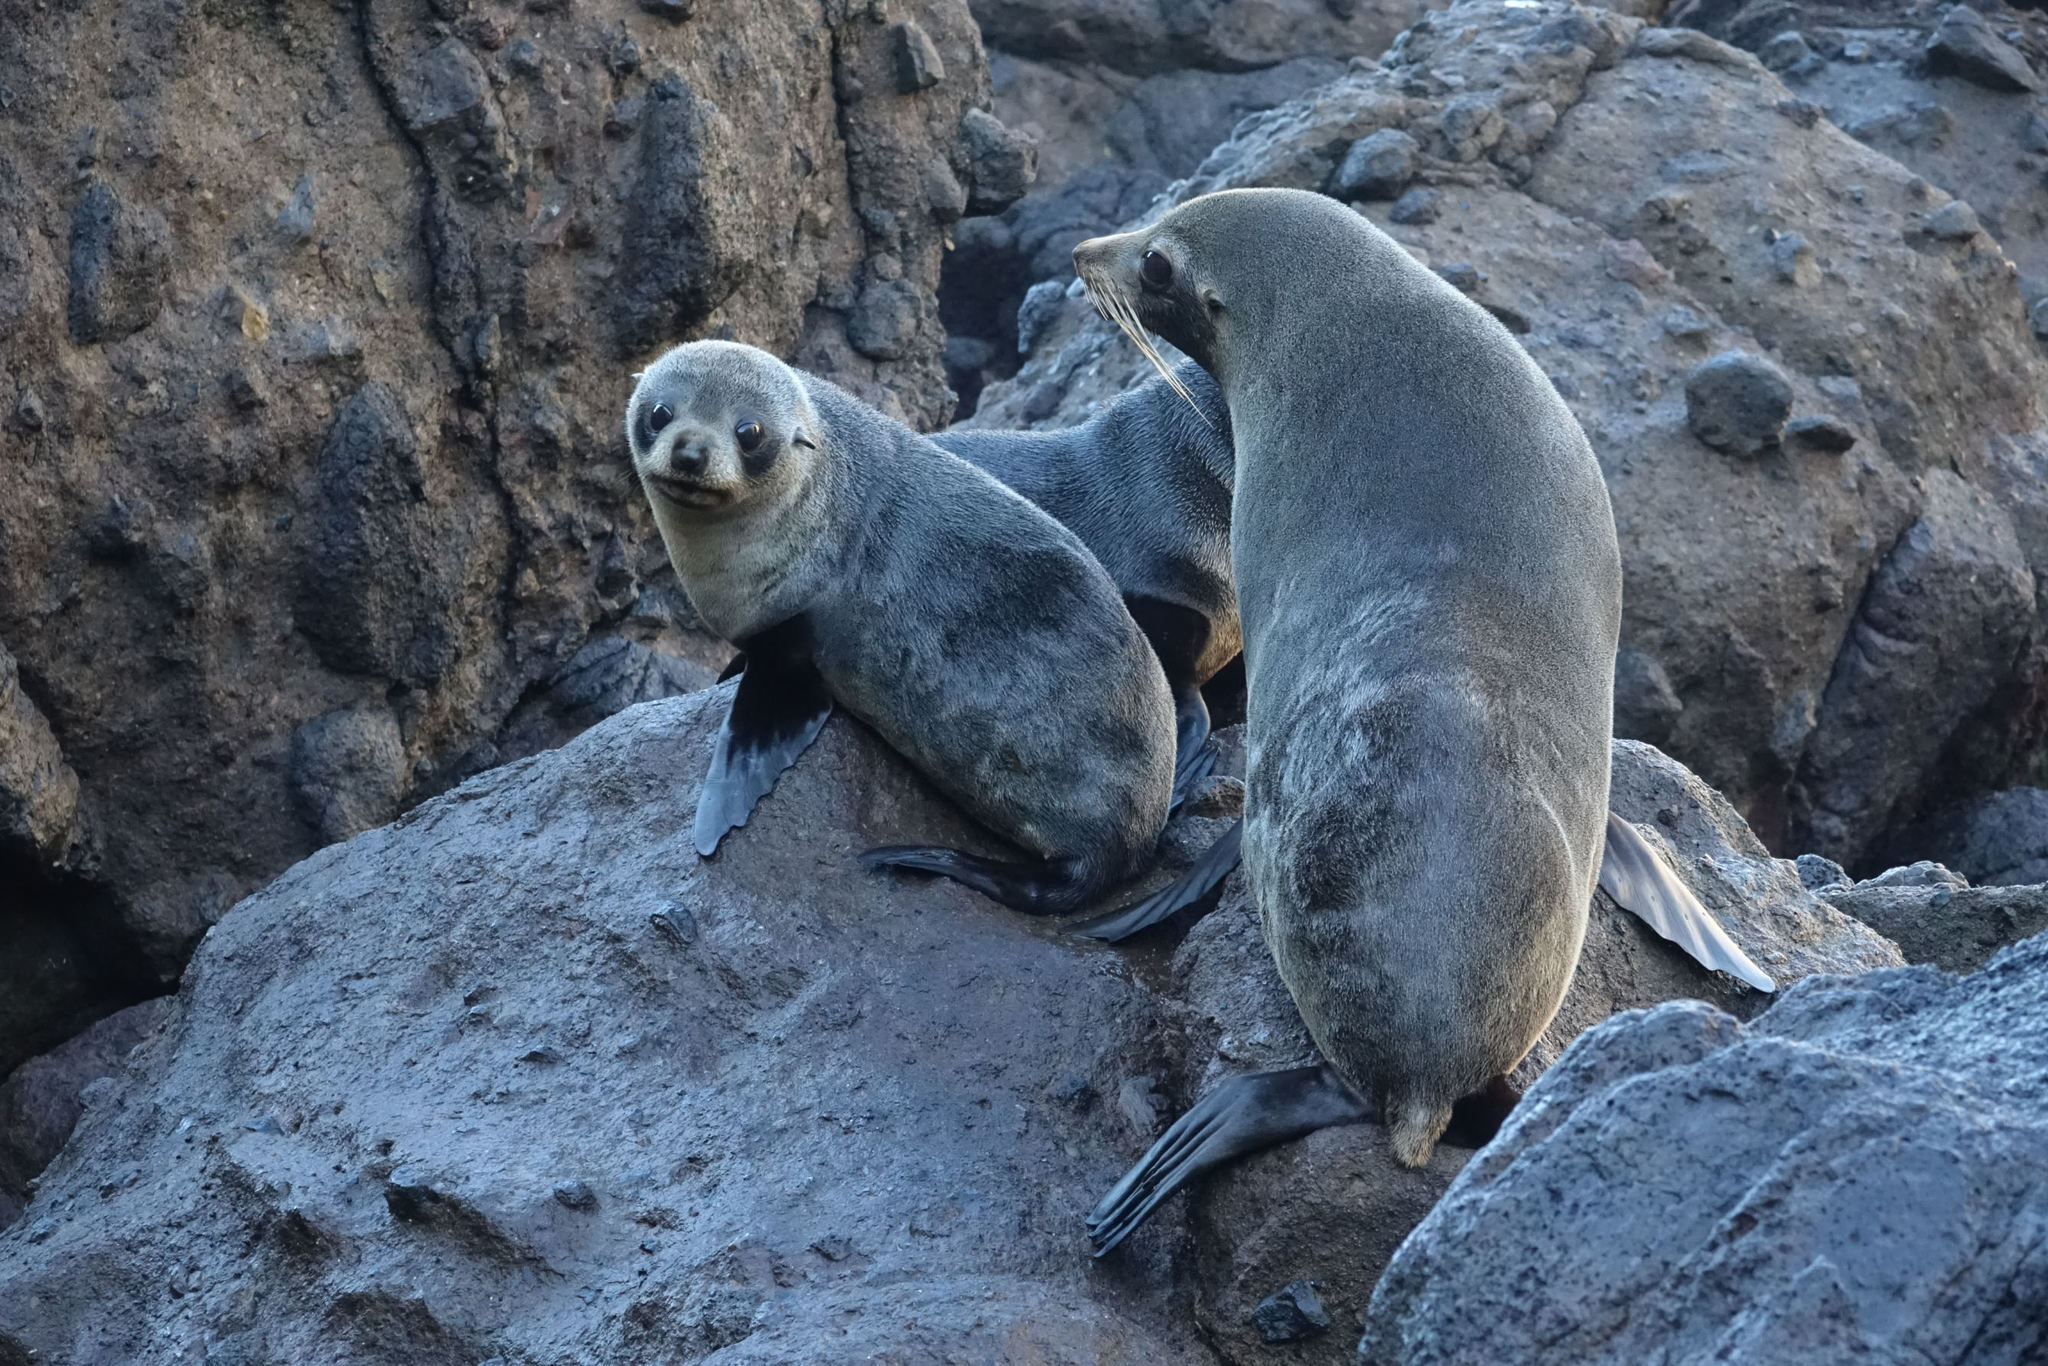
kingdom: Animalia
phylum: Chordata
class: Mammalia
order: Carnivora
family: Otariidae
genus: Arctocephalus
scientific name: Arctocephalus forsteri
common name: New zealand fur seal
